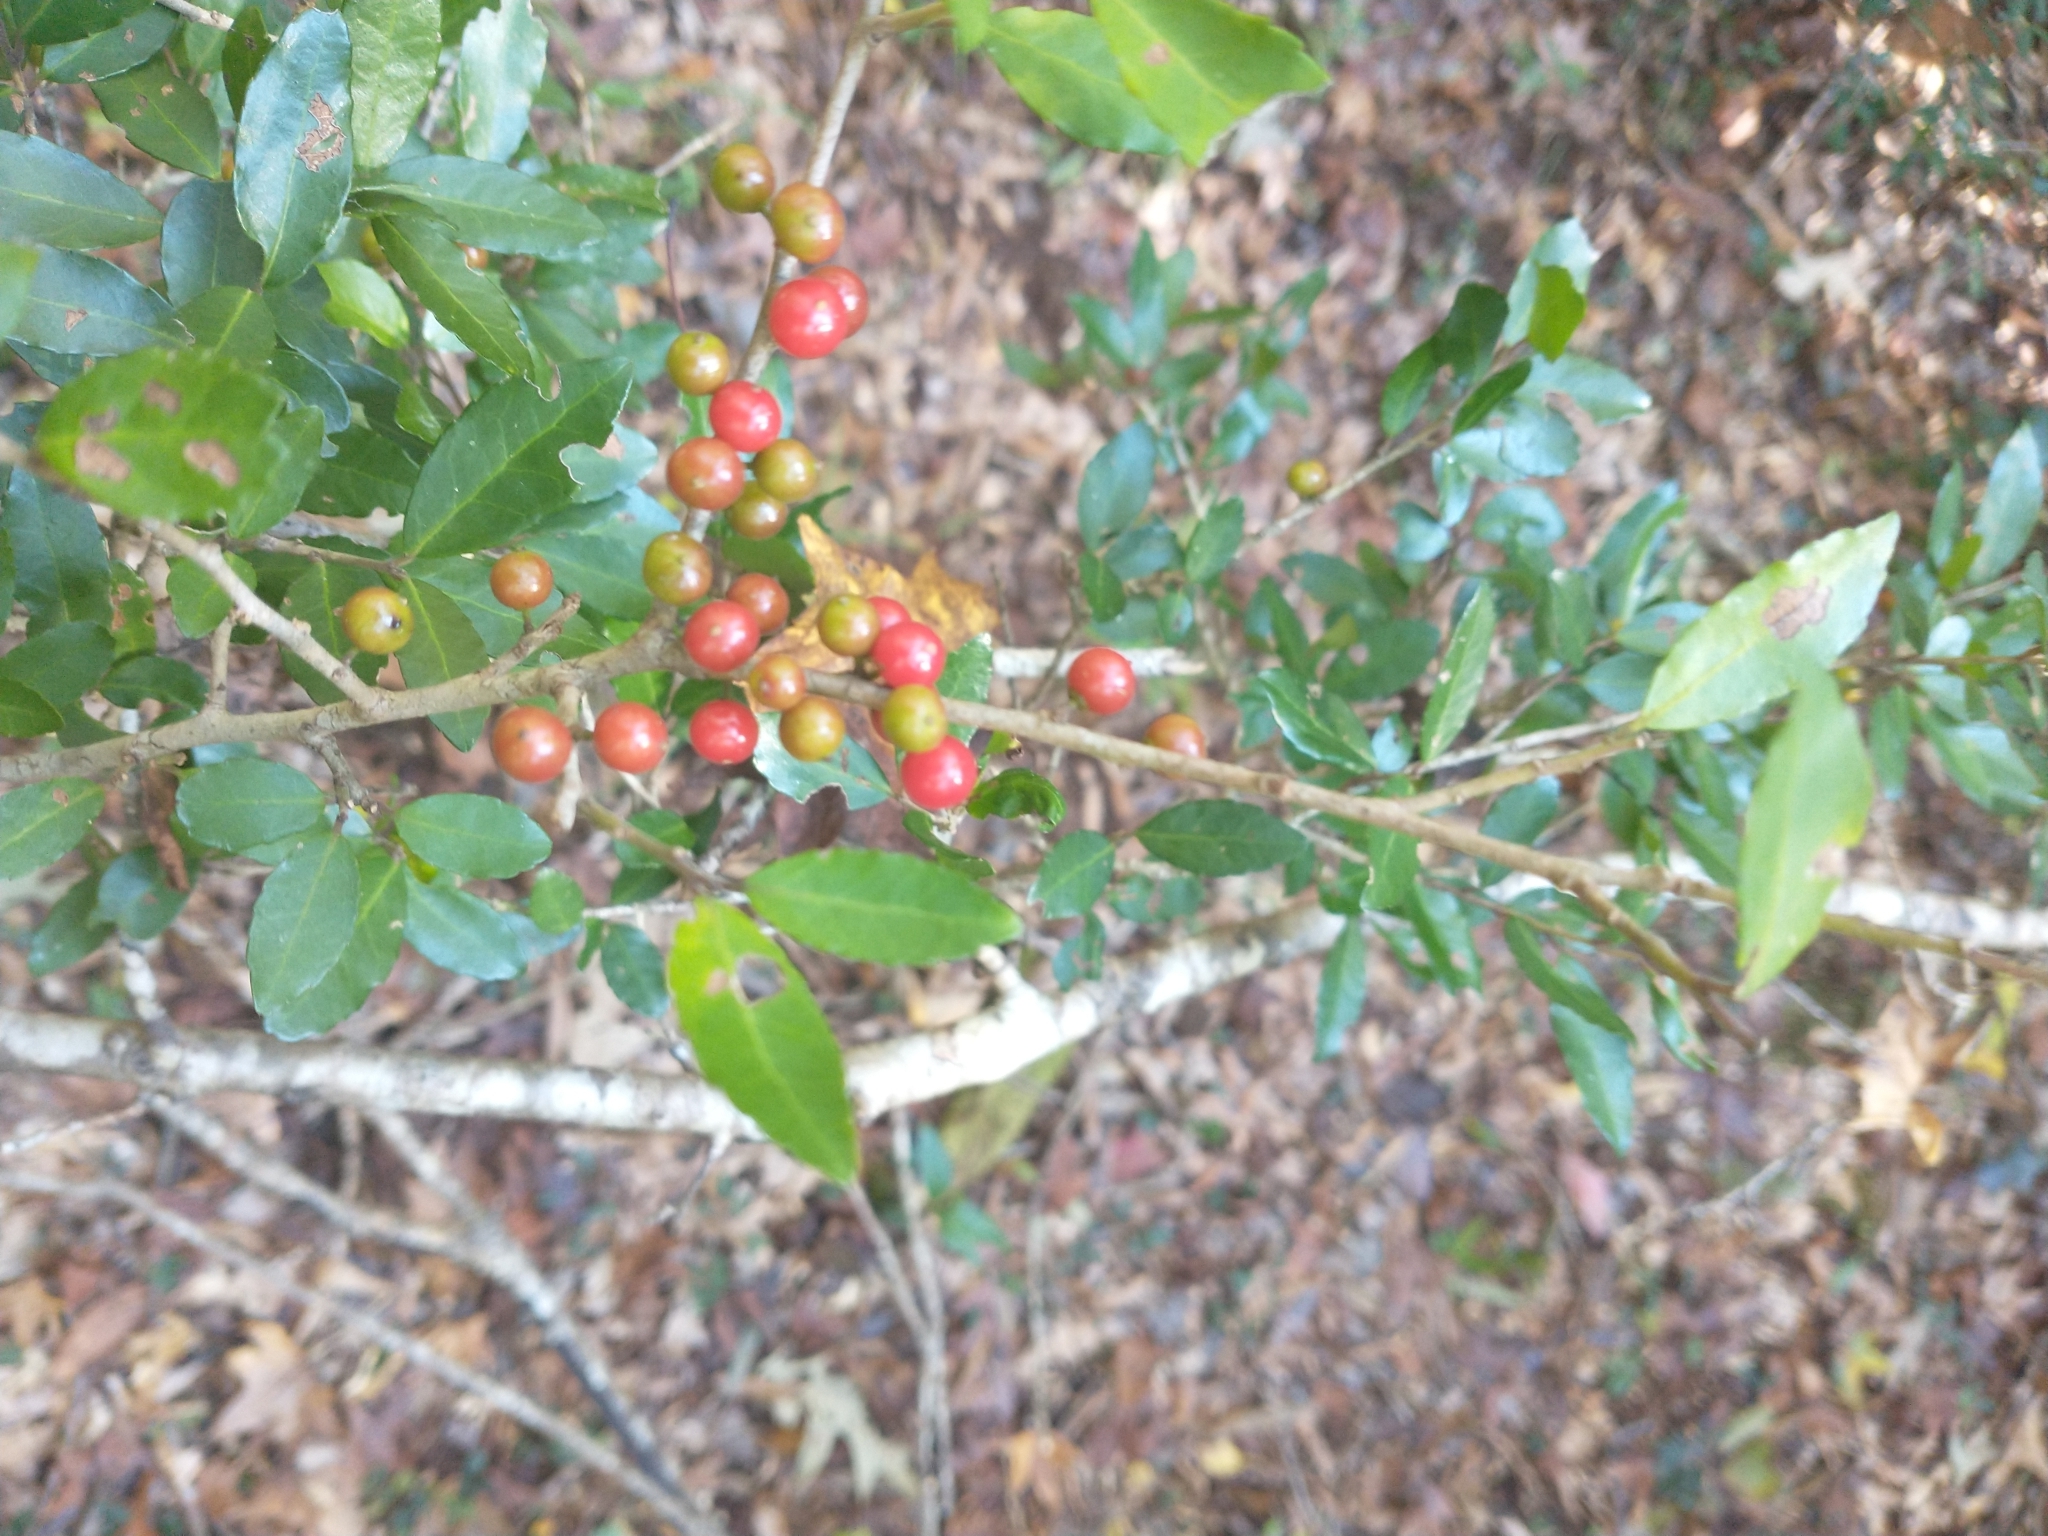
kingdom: Plantae
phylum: Tracheophyta
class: Magnoliopsida
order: Aquifoliales
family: Aquifoliaceae
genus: Ilex
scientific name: Ilex vomitoria
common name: Yaupon holly
